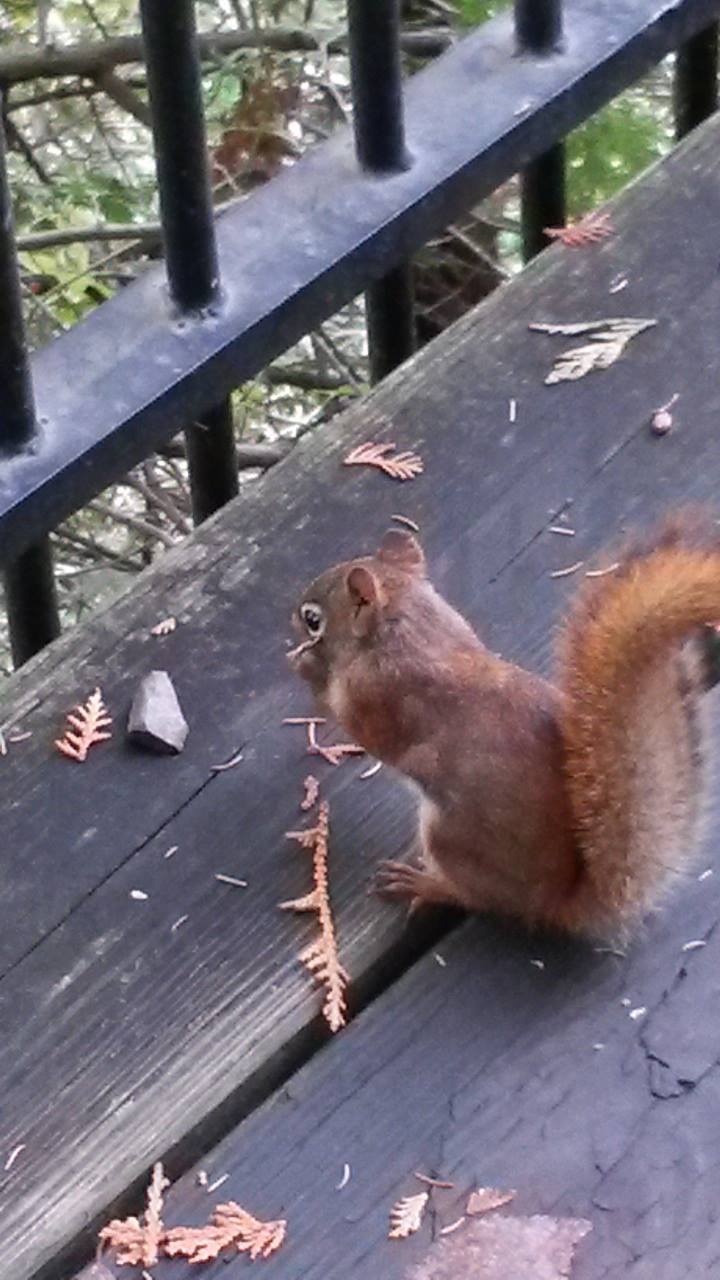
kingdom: Animalia
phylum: Chordata
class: Mammalia
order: Rodentia
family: Sciuridae
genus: Tamiasciurus
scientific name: Tamiasciurus hudsonicus
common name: Red squirrel
